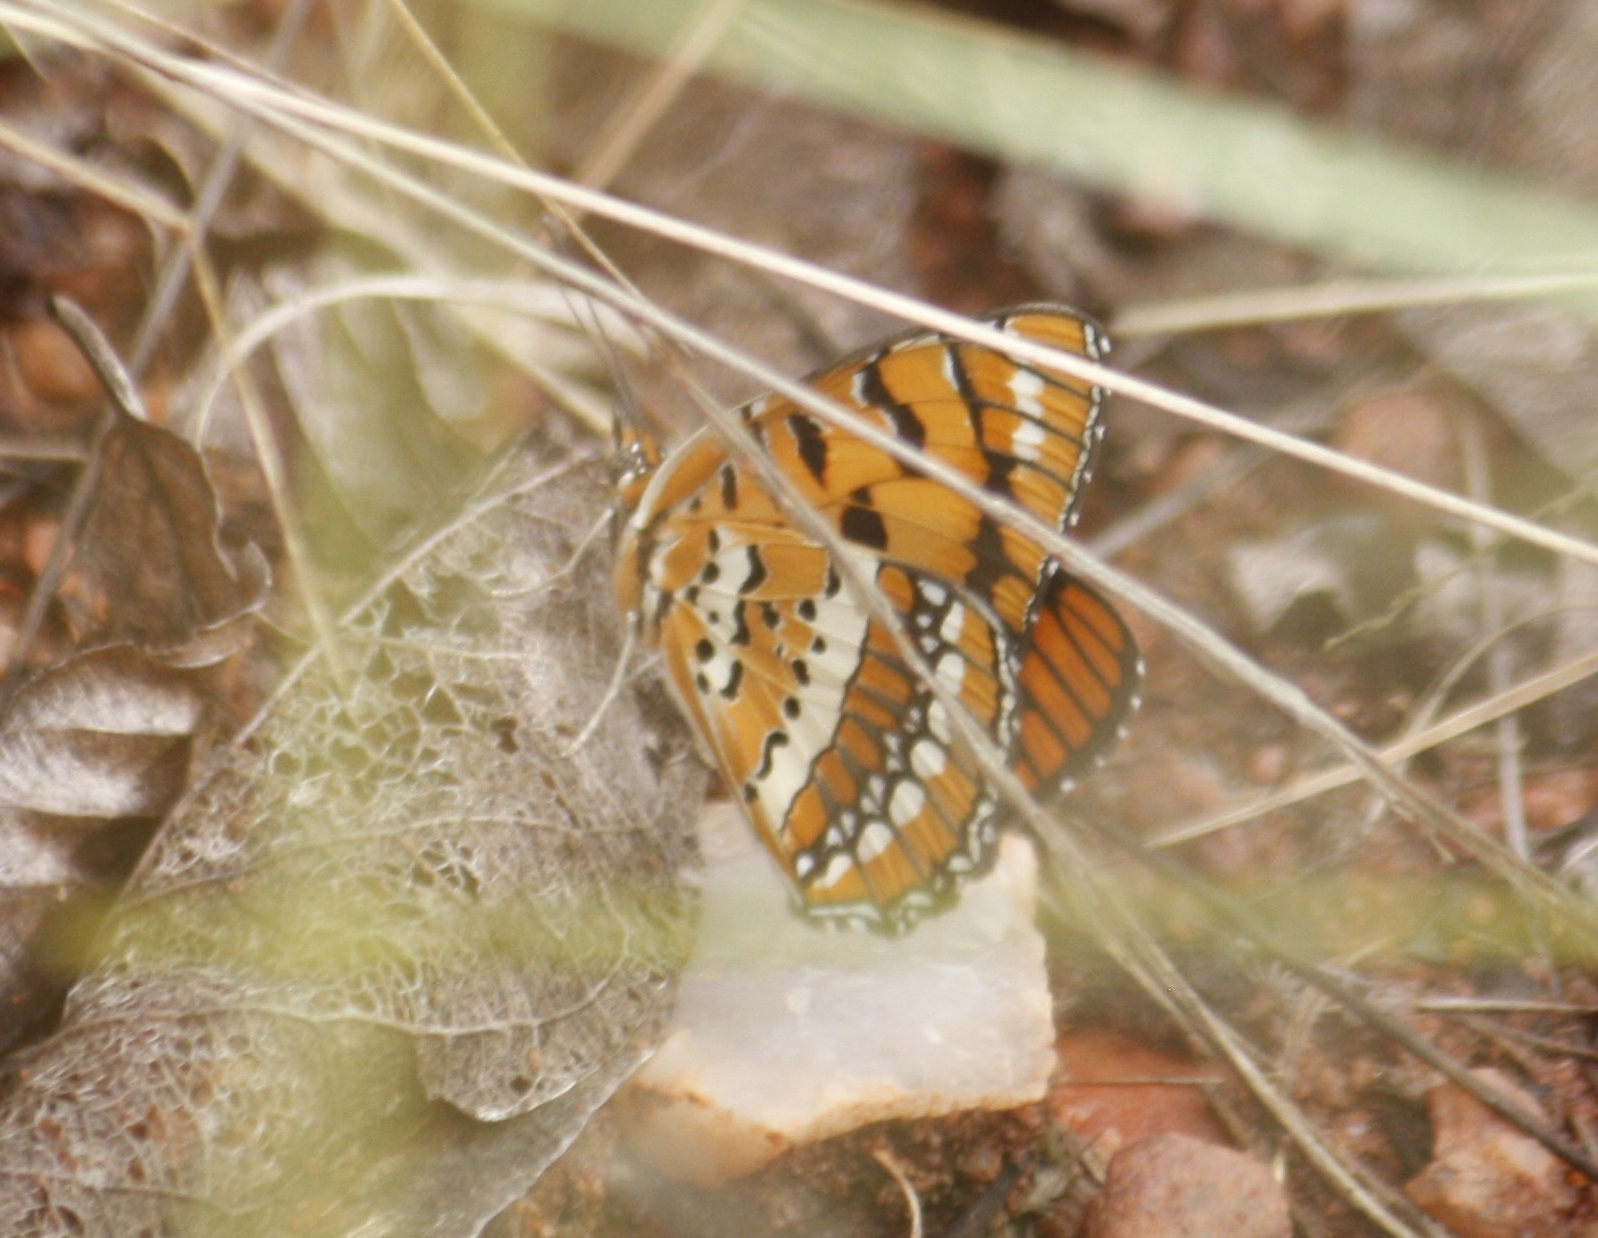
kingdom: Animalia
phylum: Arthropoda
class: Insecta
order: Lepidoptera
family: Nymphalidae
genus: Byblia
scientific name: Byblia ilithyia
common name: Spotted joker
